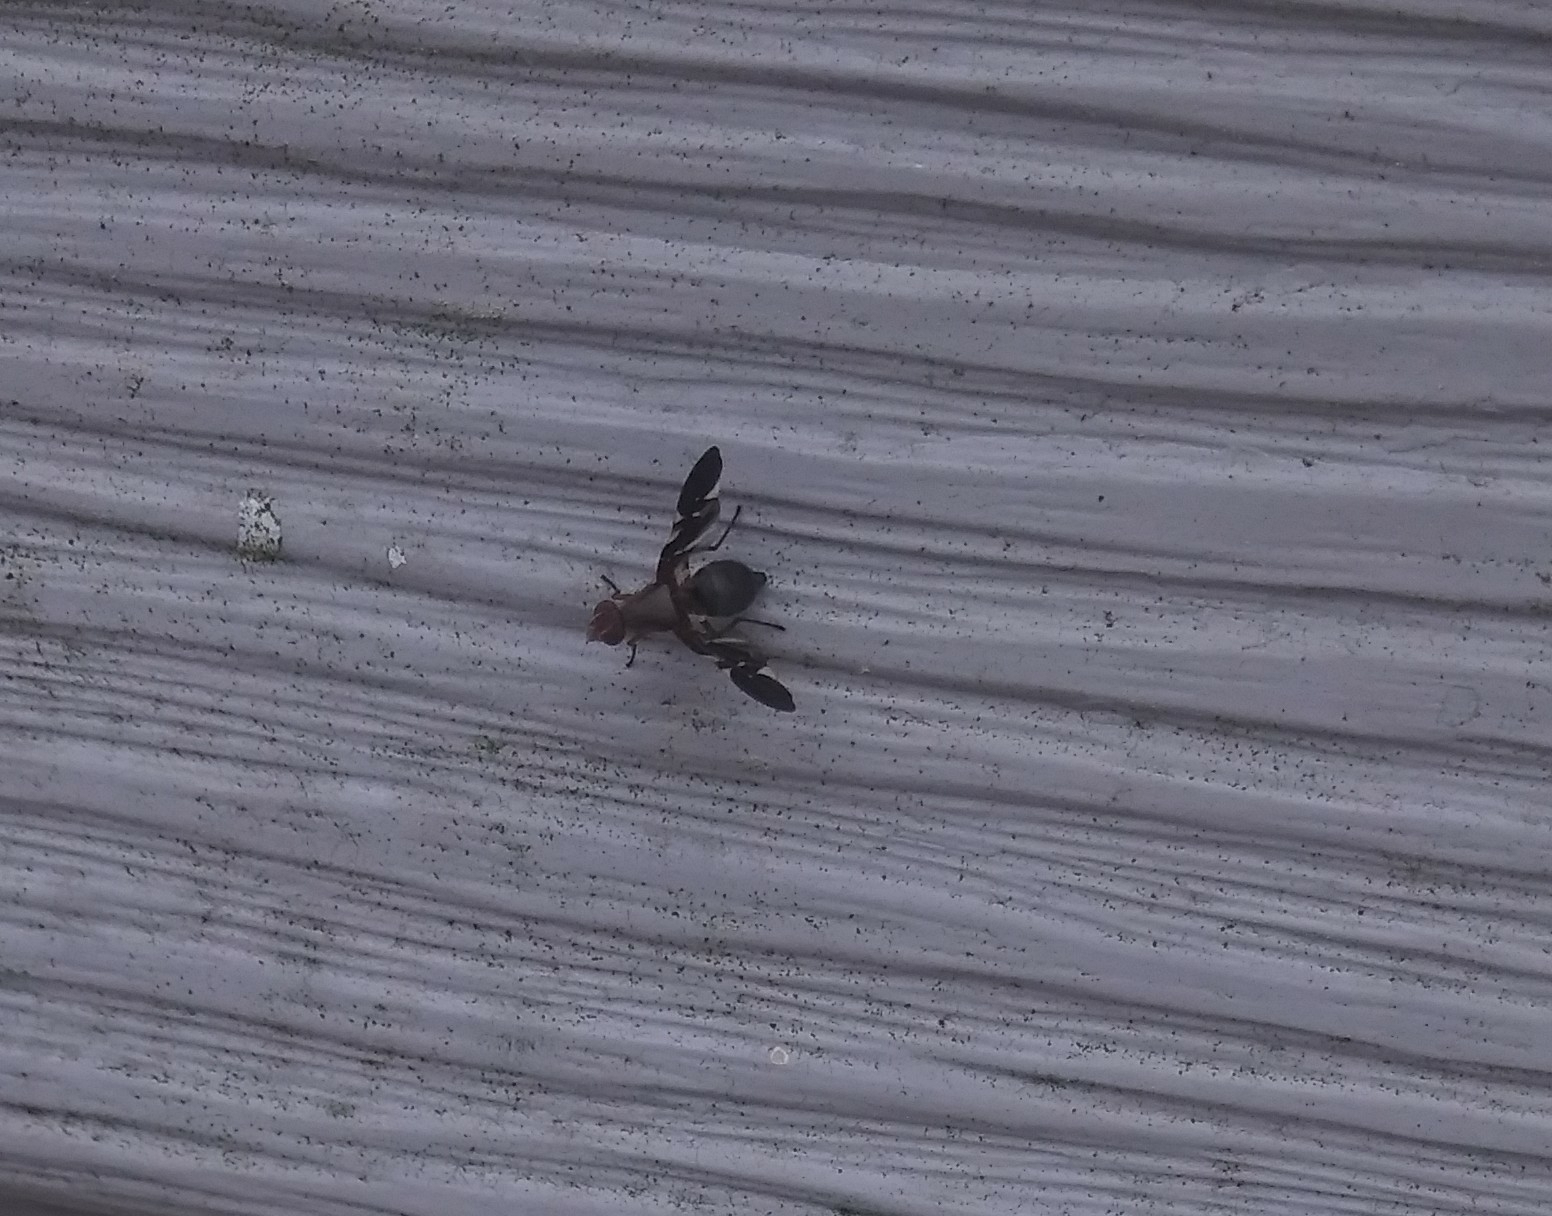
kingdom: Animalia
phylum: Arthropoda
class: Insecta
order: Diptera
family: Ulidiidae
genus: Delphinia
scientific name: Delphinia picta
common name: Common picture-winged fly
